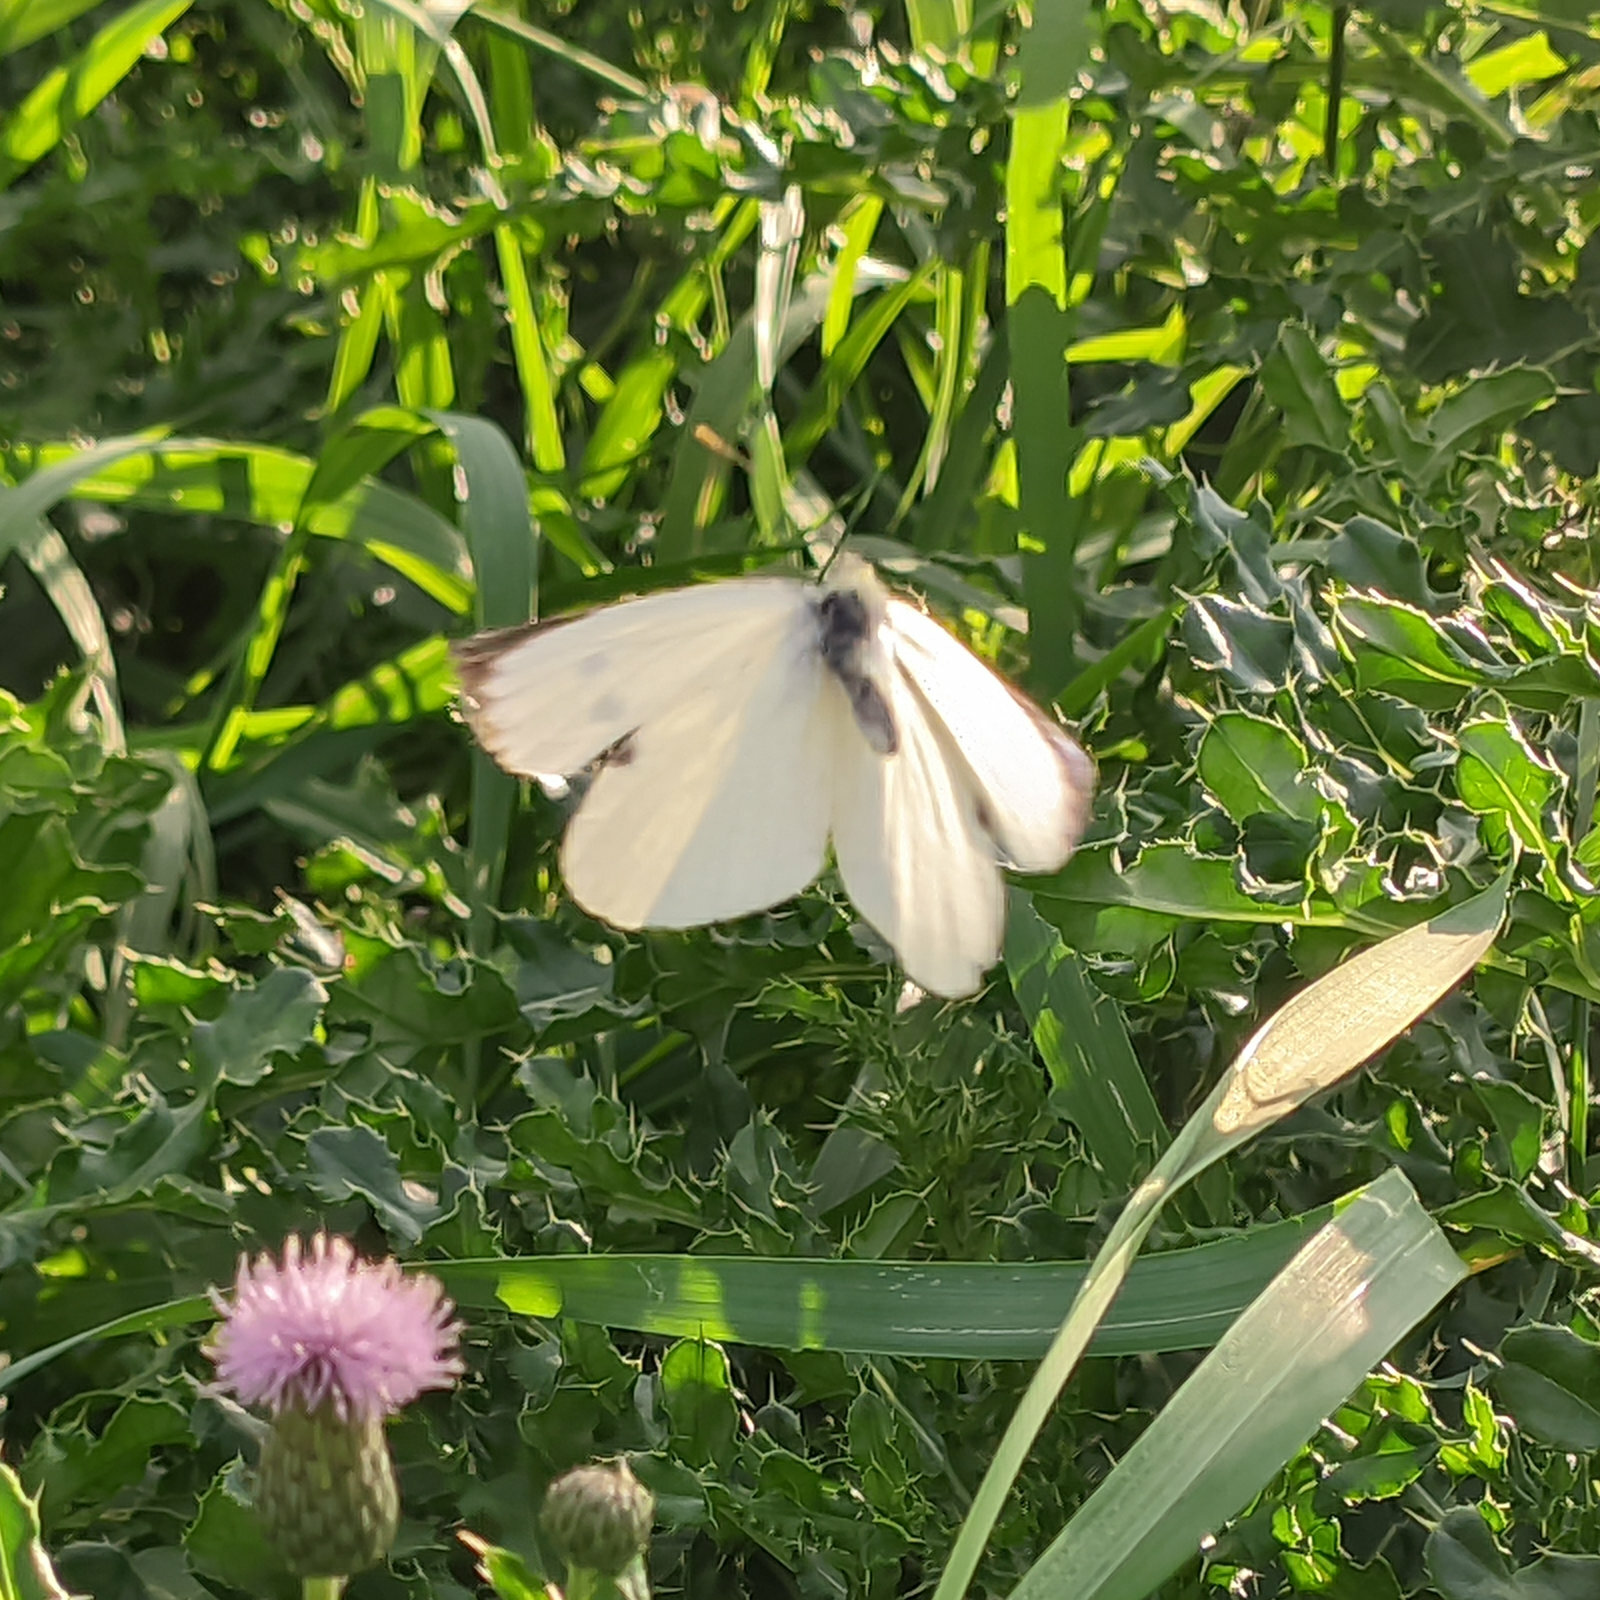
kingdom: Animalia
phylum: Arthropoda
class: Insecta
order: Lepidoptera
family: Pieridae
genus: Pieris
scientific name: Pieris brassicae
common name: Large white
